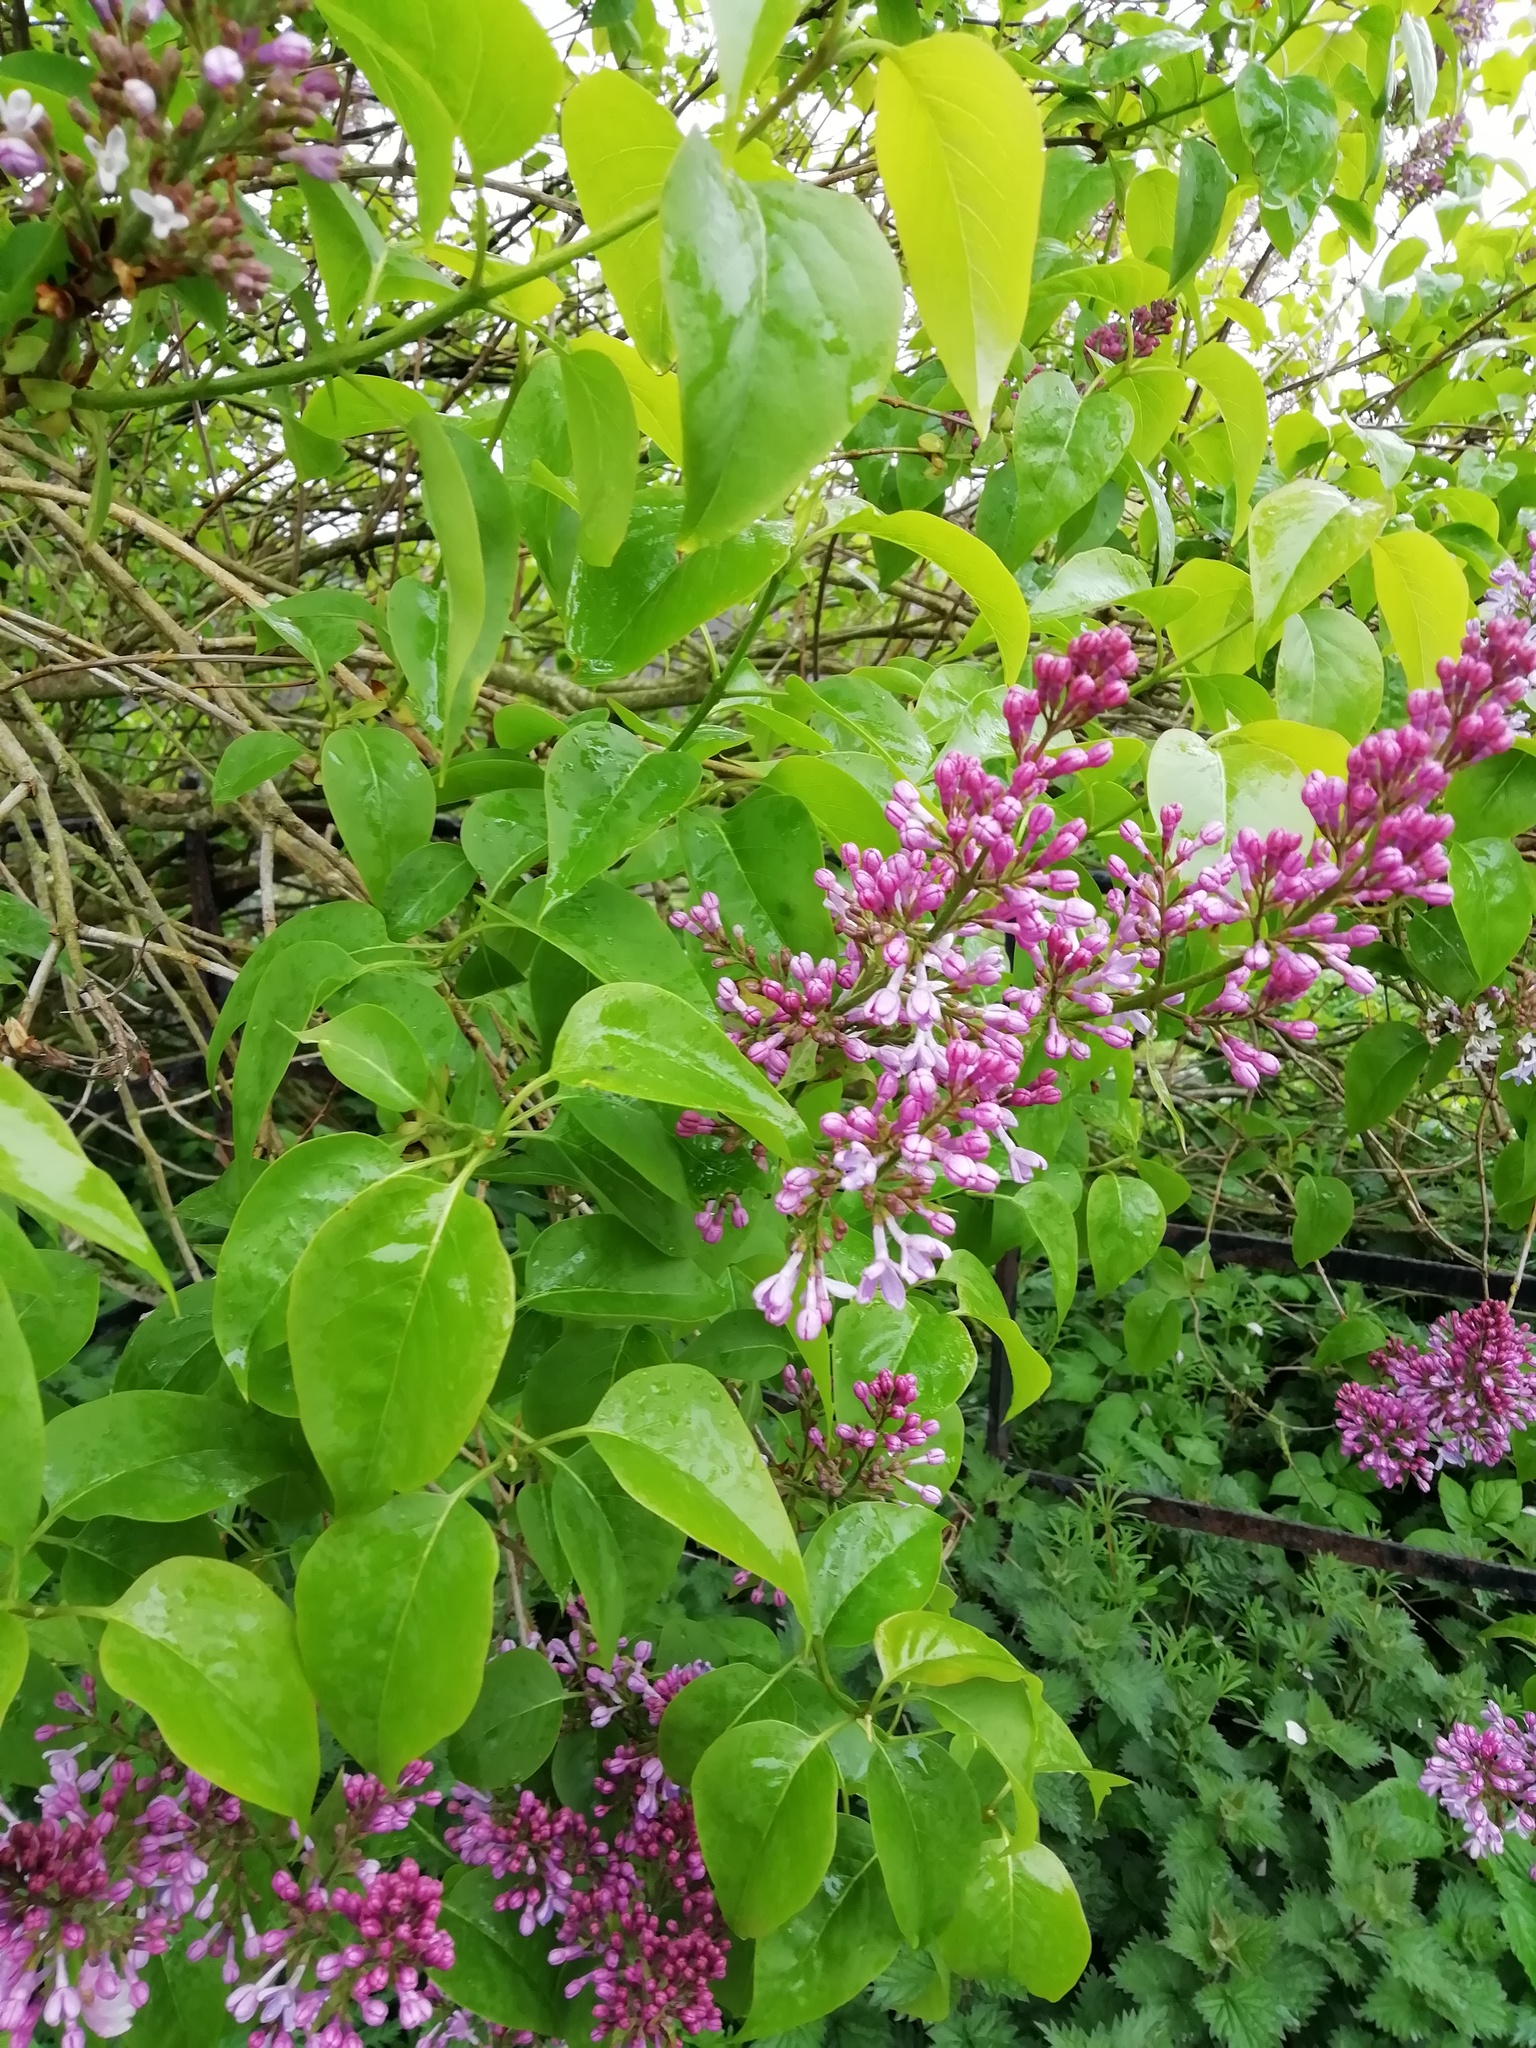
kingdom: Plantae
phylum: Tracheophyta
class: Magnoliopsida
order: Lamiales
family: Oleaceae
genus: Syringa
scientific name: Syringa vulgaris
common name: Common lilac
